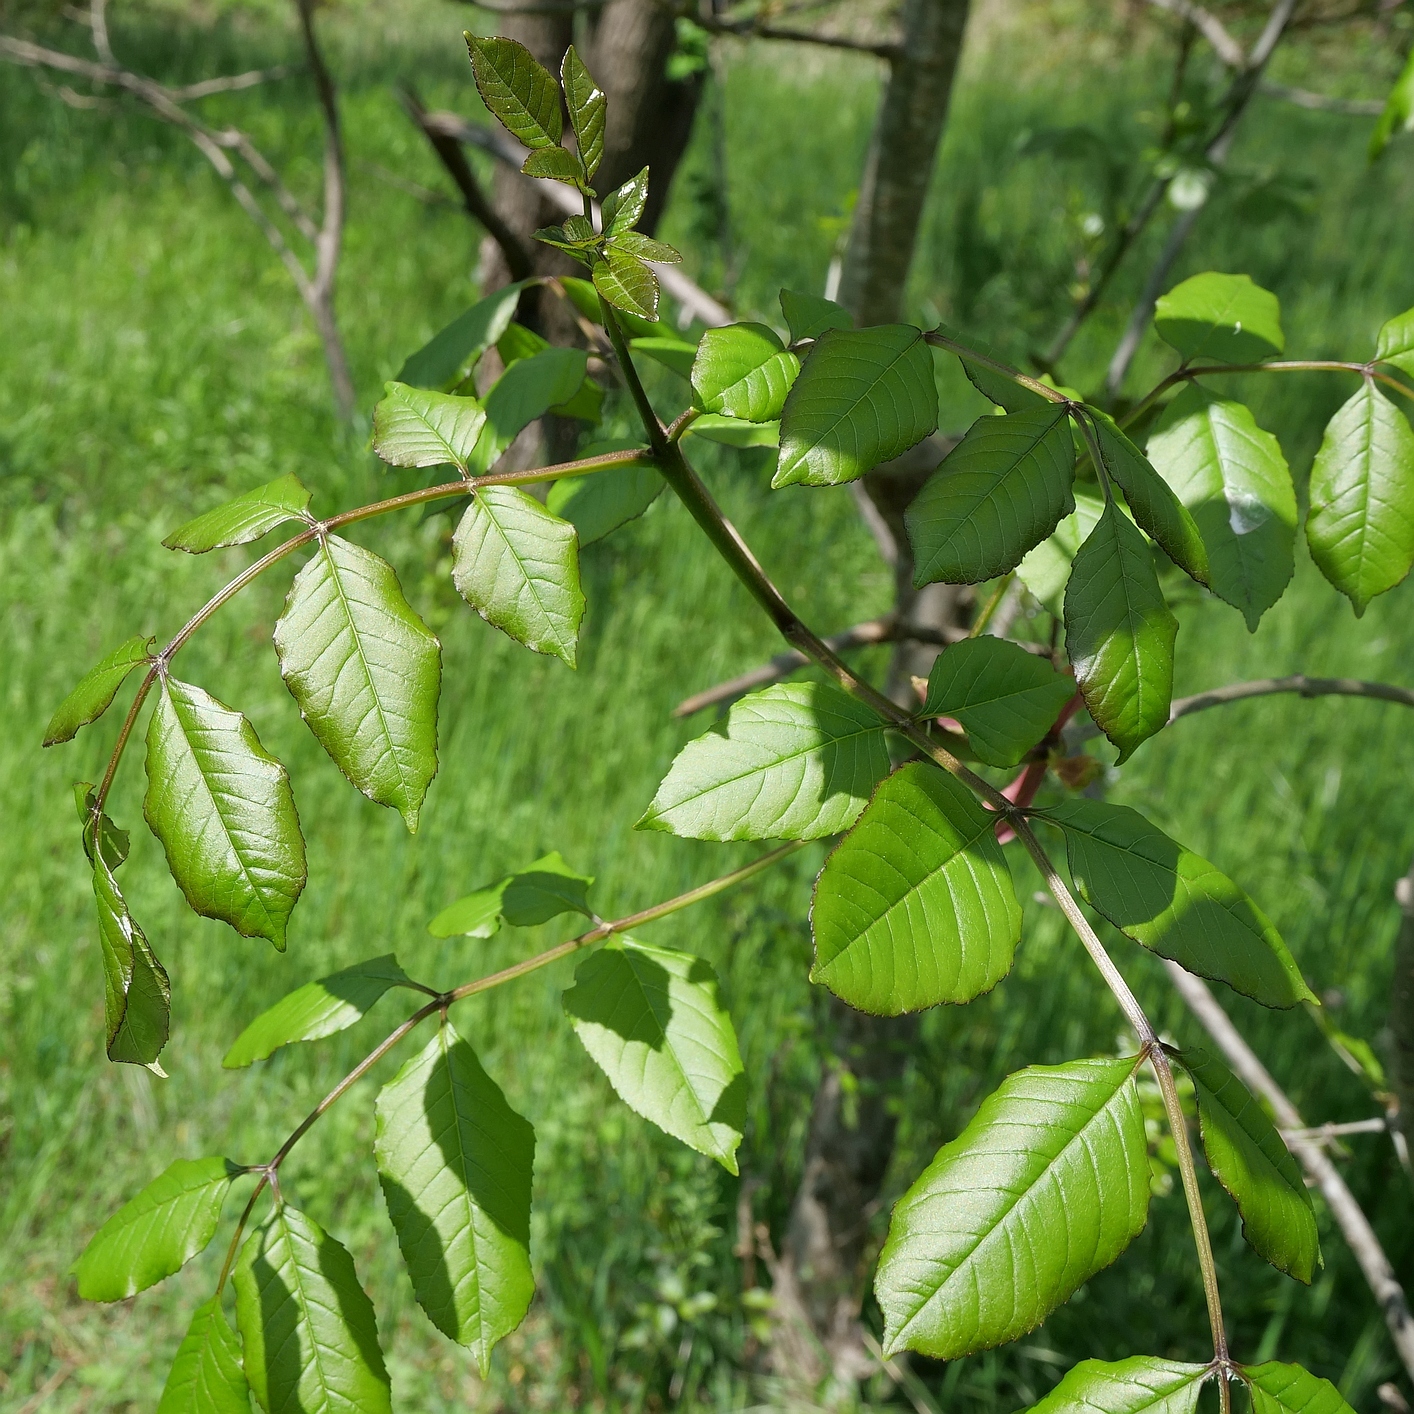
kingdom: Plantae
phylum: Tracheophyta
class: Magnoliopsida
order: Lamiales
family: Oleaceae
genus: Fraxinus
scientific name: Fraxinus ornus
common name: Manna ash
